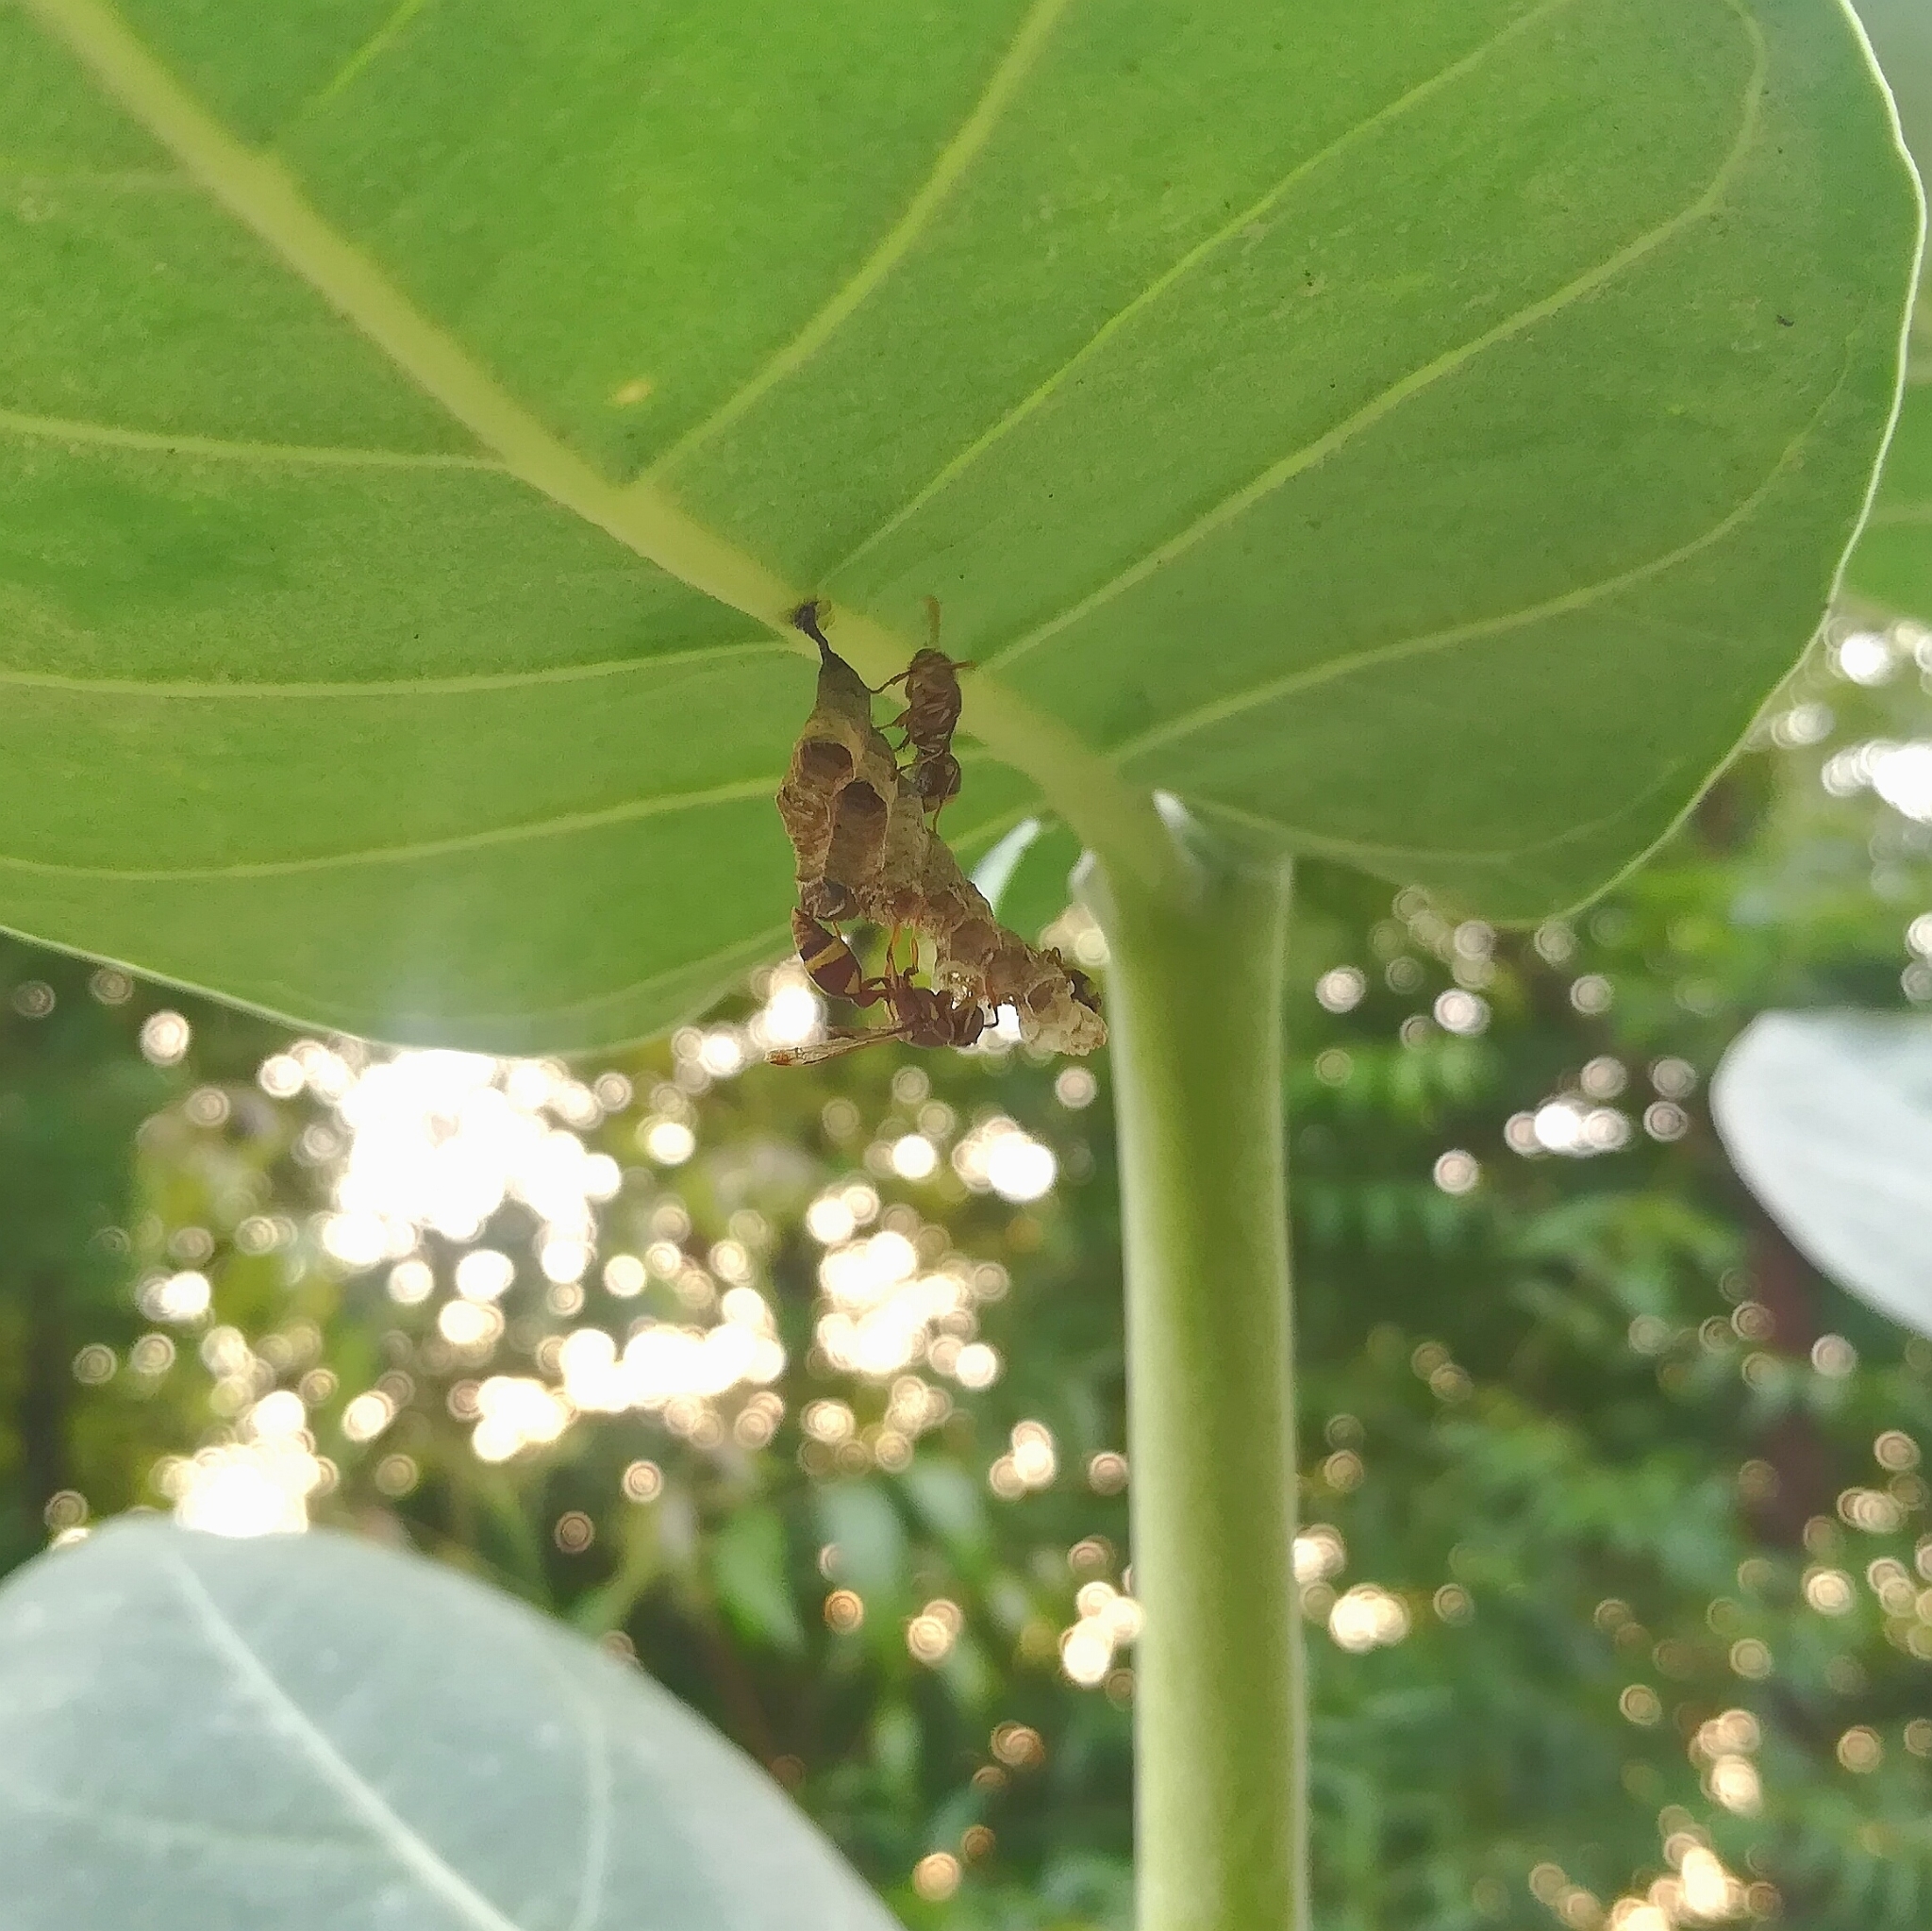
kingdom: Animalia
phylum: Arthropoda
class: Insecta
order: Hymenoptera
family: Vespidae
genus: Ropalidia
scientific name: Ropalidia variegata
